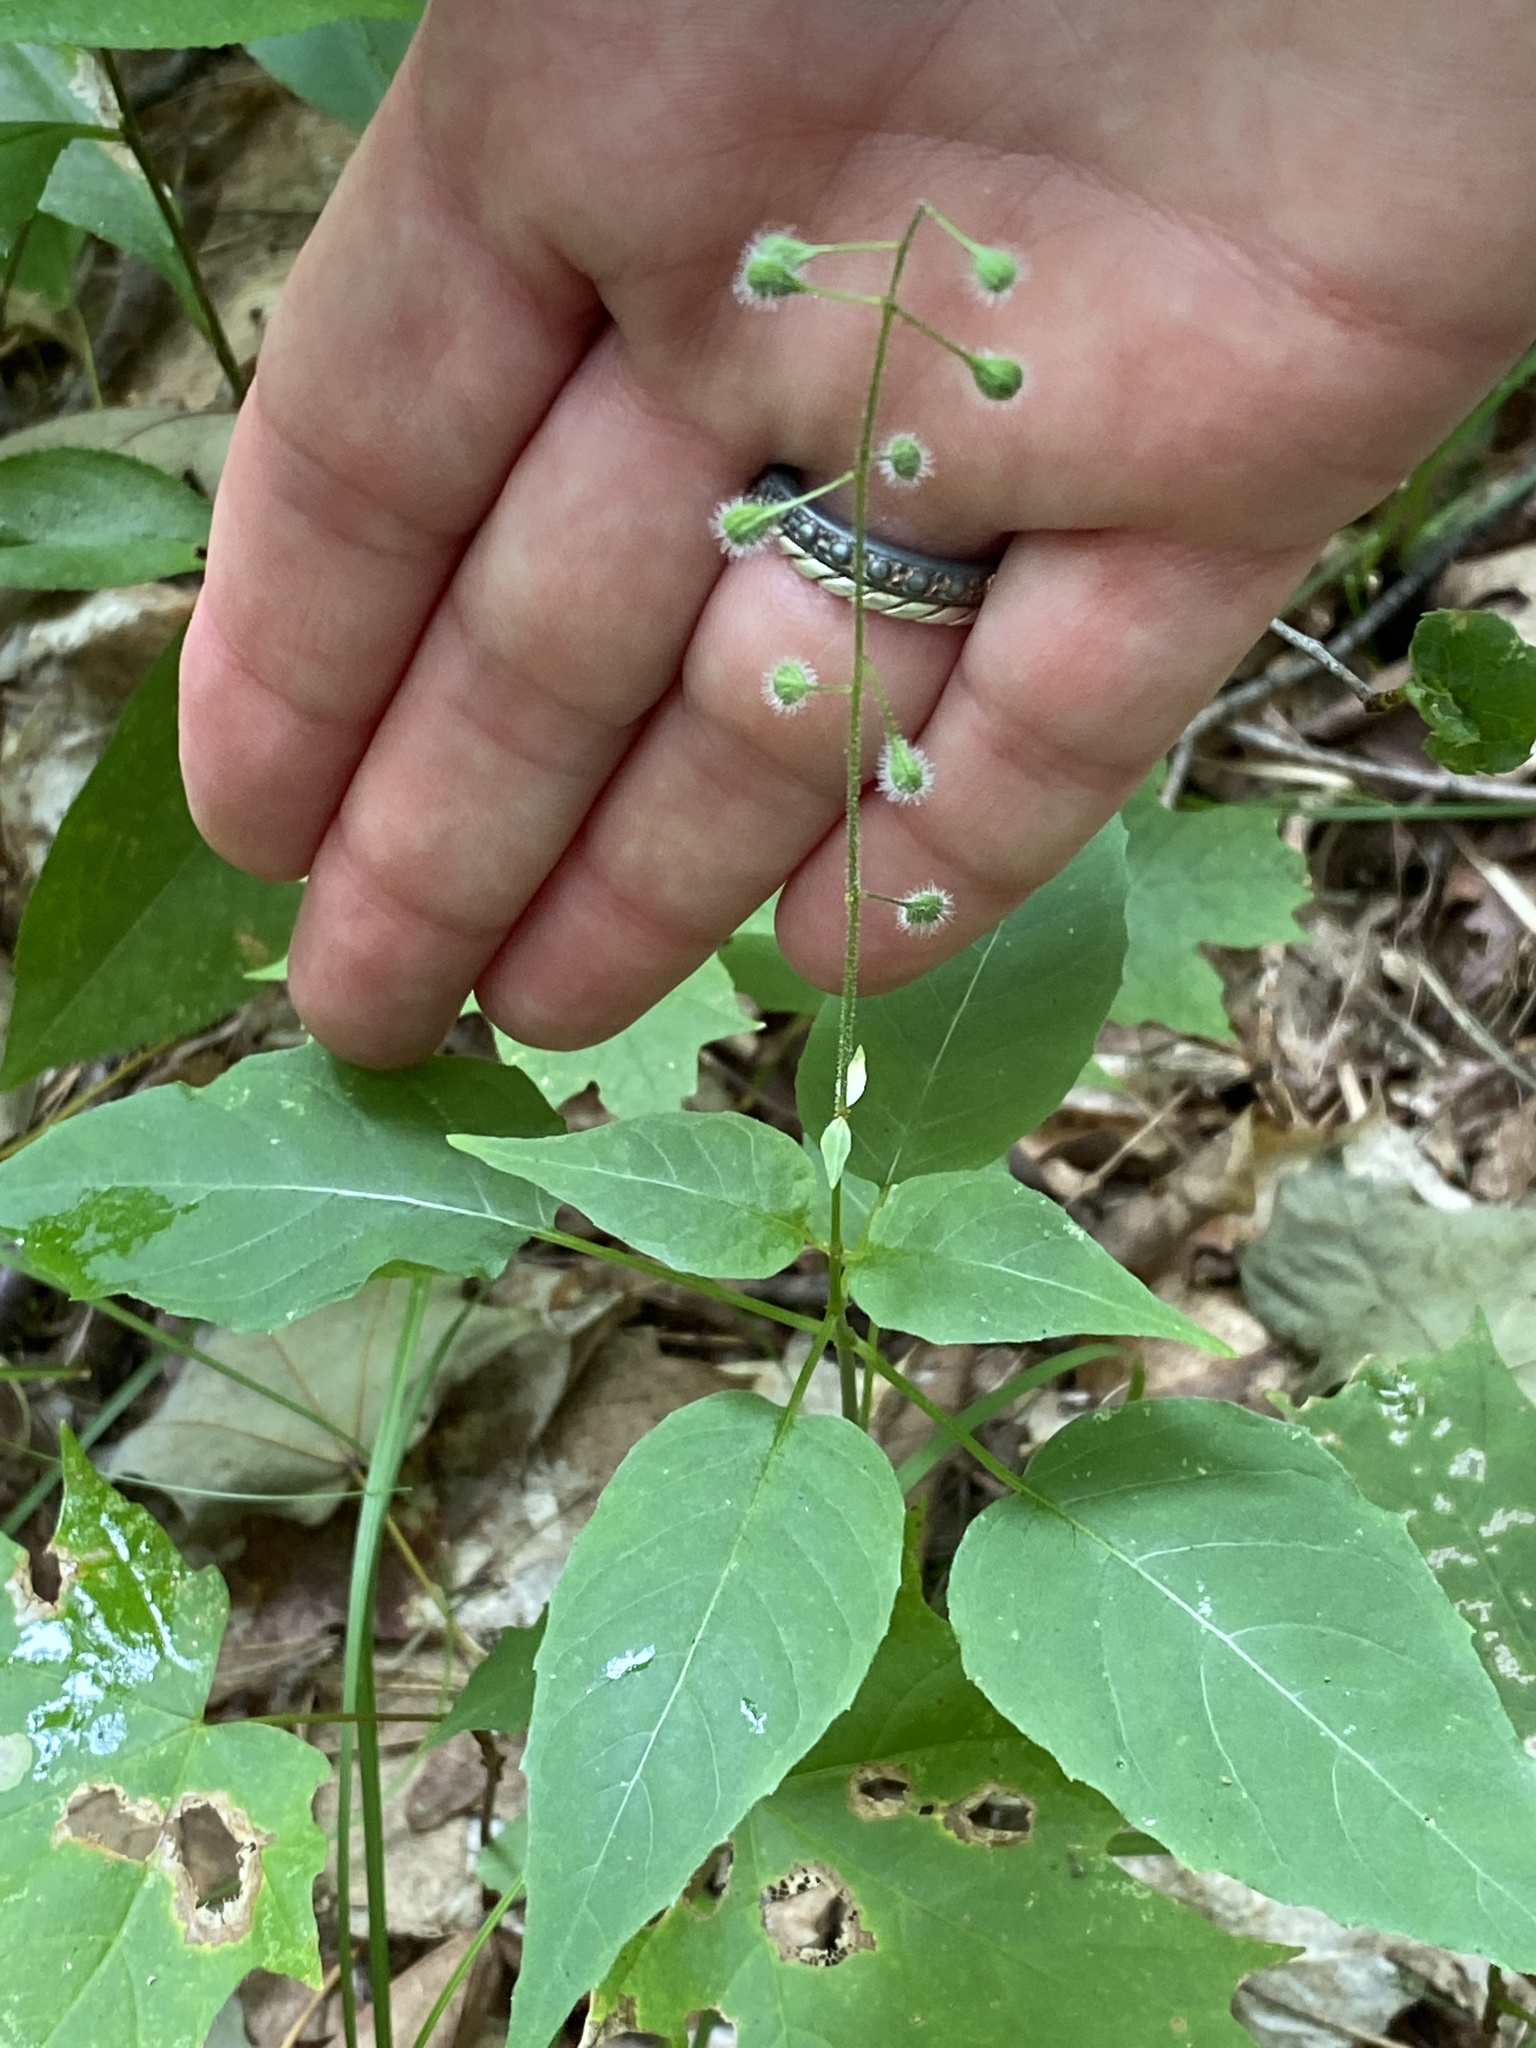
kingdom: Plantae
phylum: Tracheophyta
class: Magnoliopsida
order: Myrtales
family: Onagraceae
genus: Circaea
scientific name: Circaea canadensis
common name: Broad-leaved enchanter's nightshade
